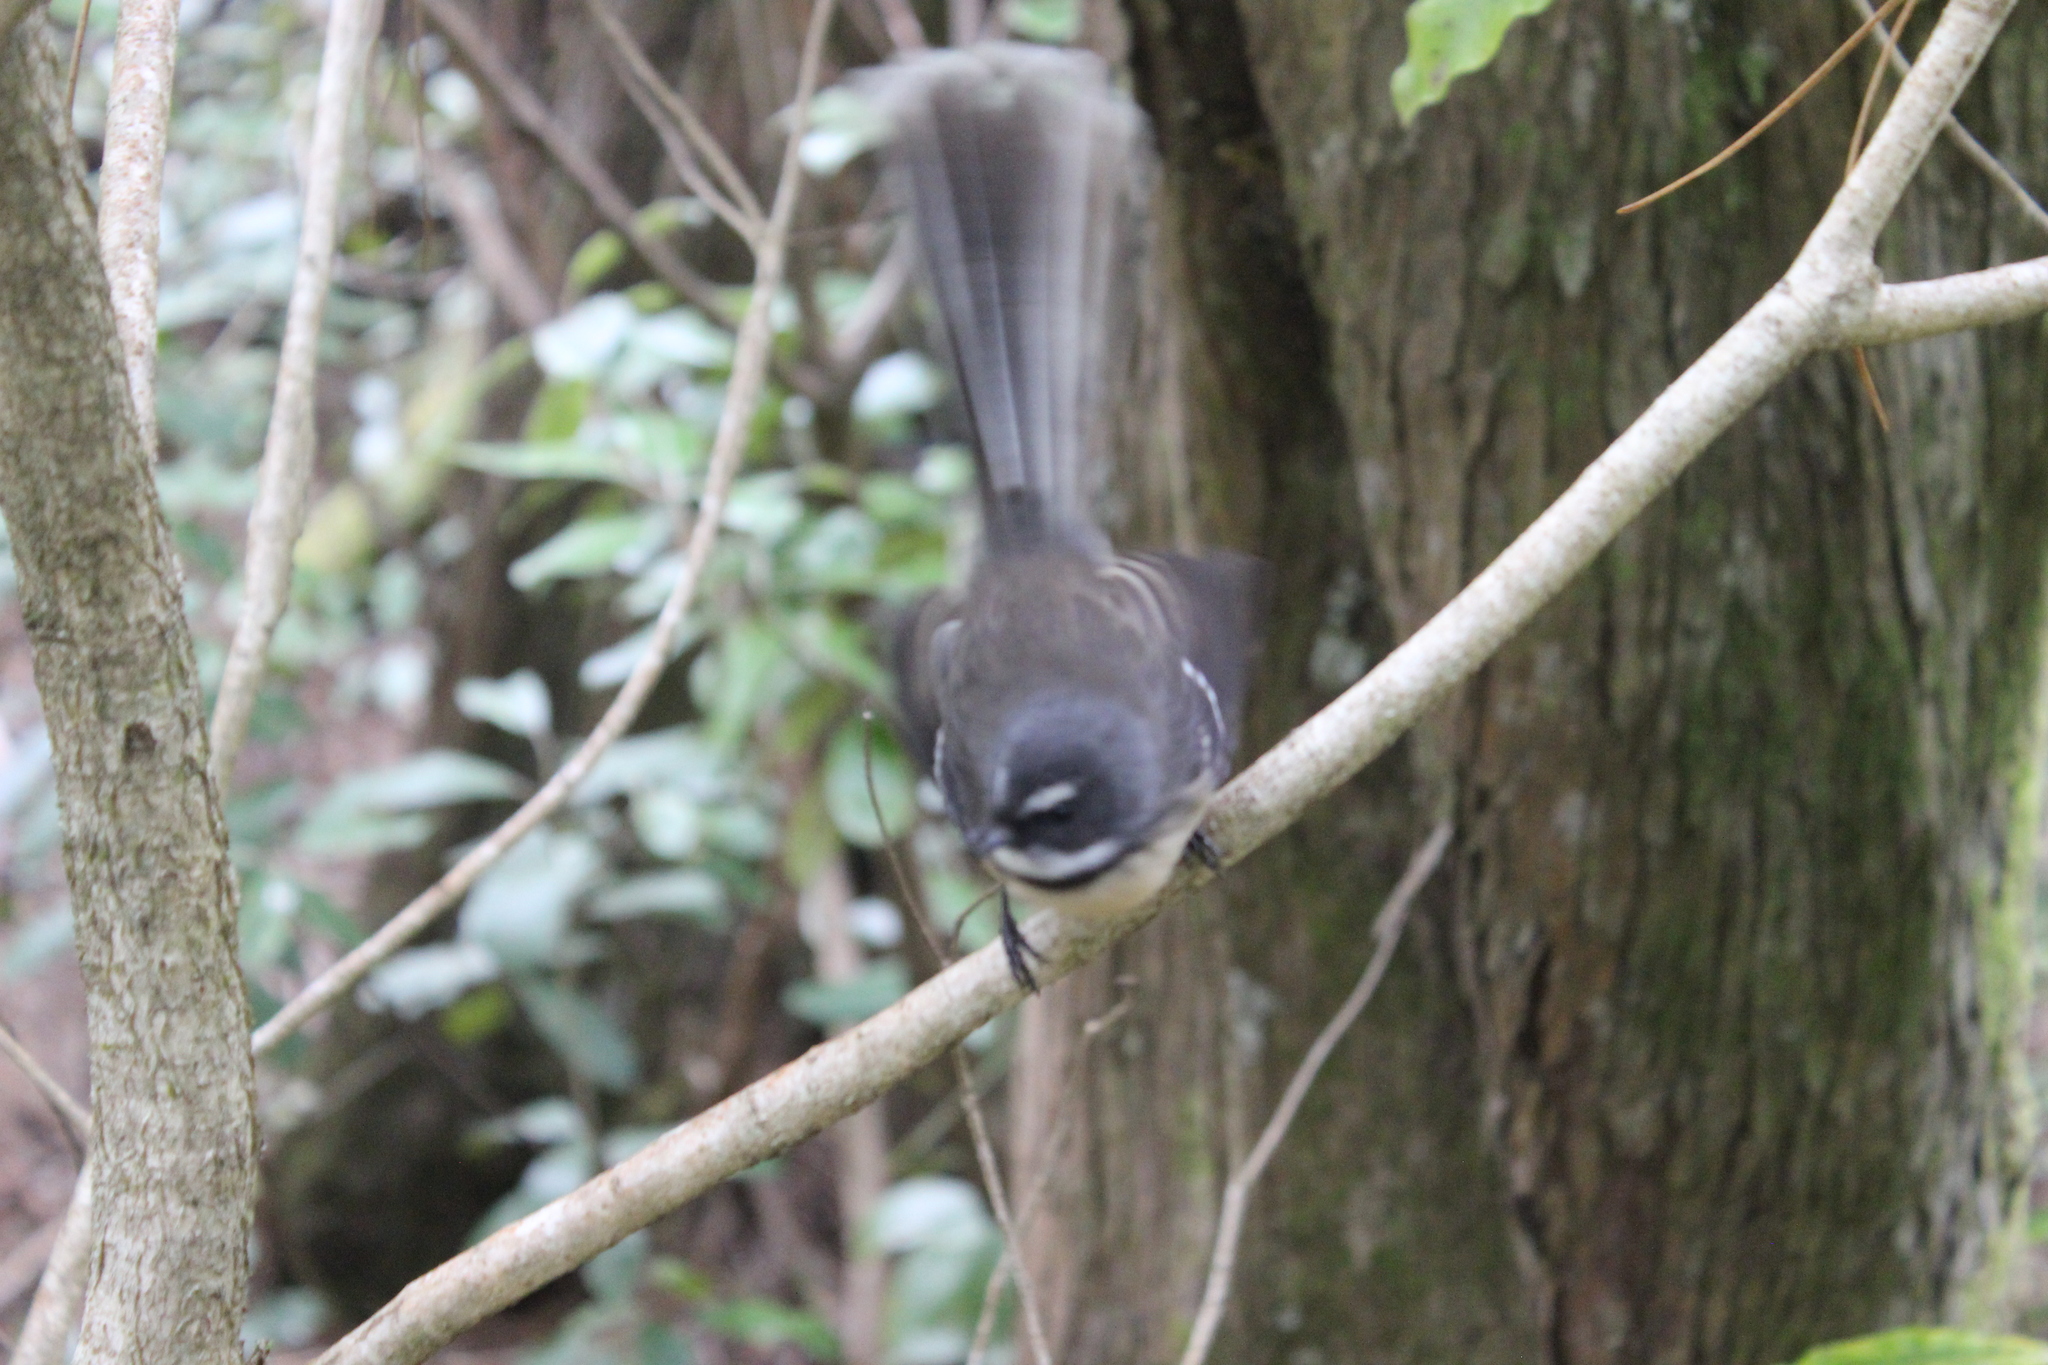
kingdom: Animalia
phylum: Chordata
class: Aves
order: Passeriformes
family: Rhipiduridae
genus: Rhipidura
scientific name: Rhipidura fuliginosa
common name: New zealand fantail
